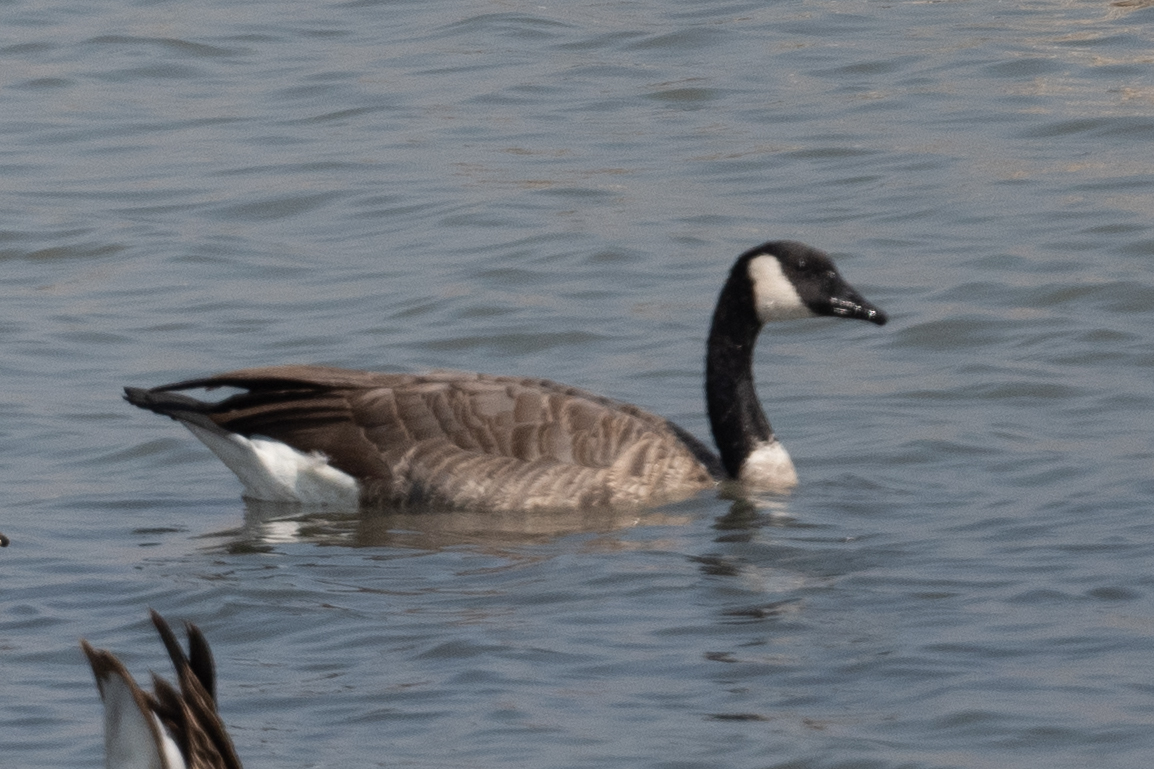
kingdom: Animalia
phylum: Chordata
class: Aves
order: Anseriformes
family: Anatidae
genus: Branta
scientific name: Branta canadensis
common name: Canada goose
